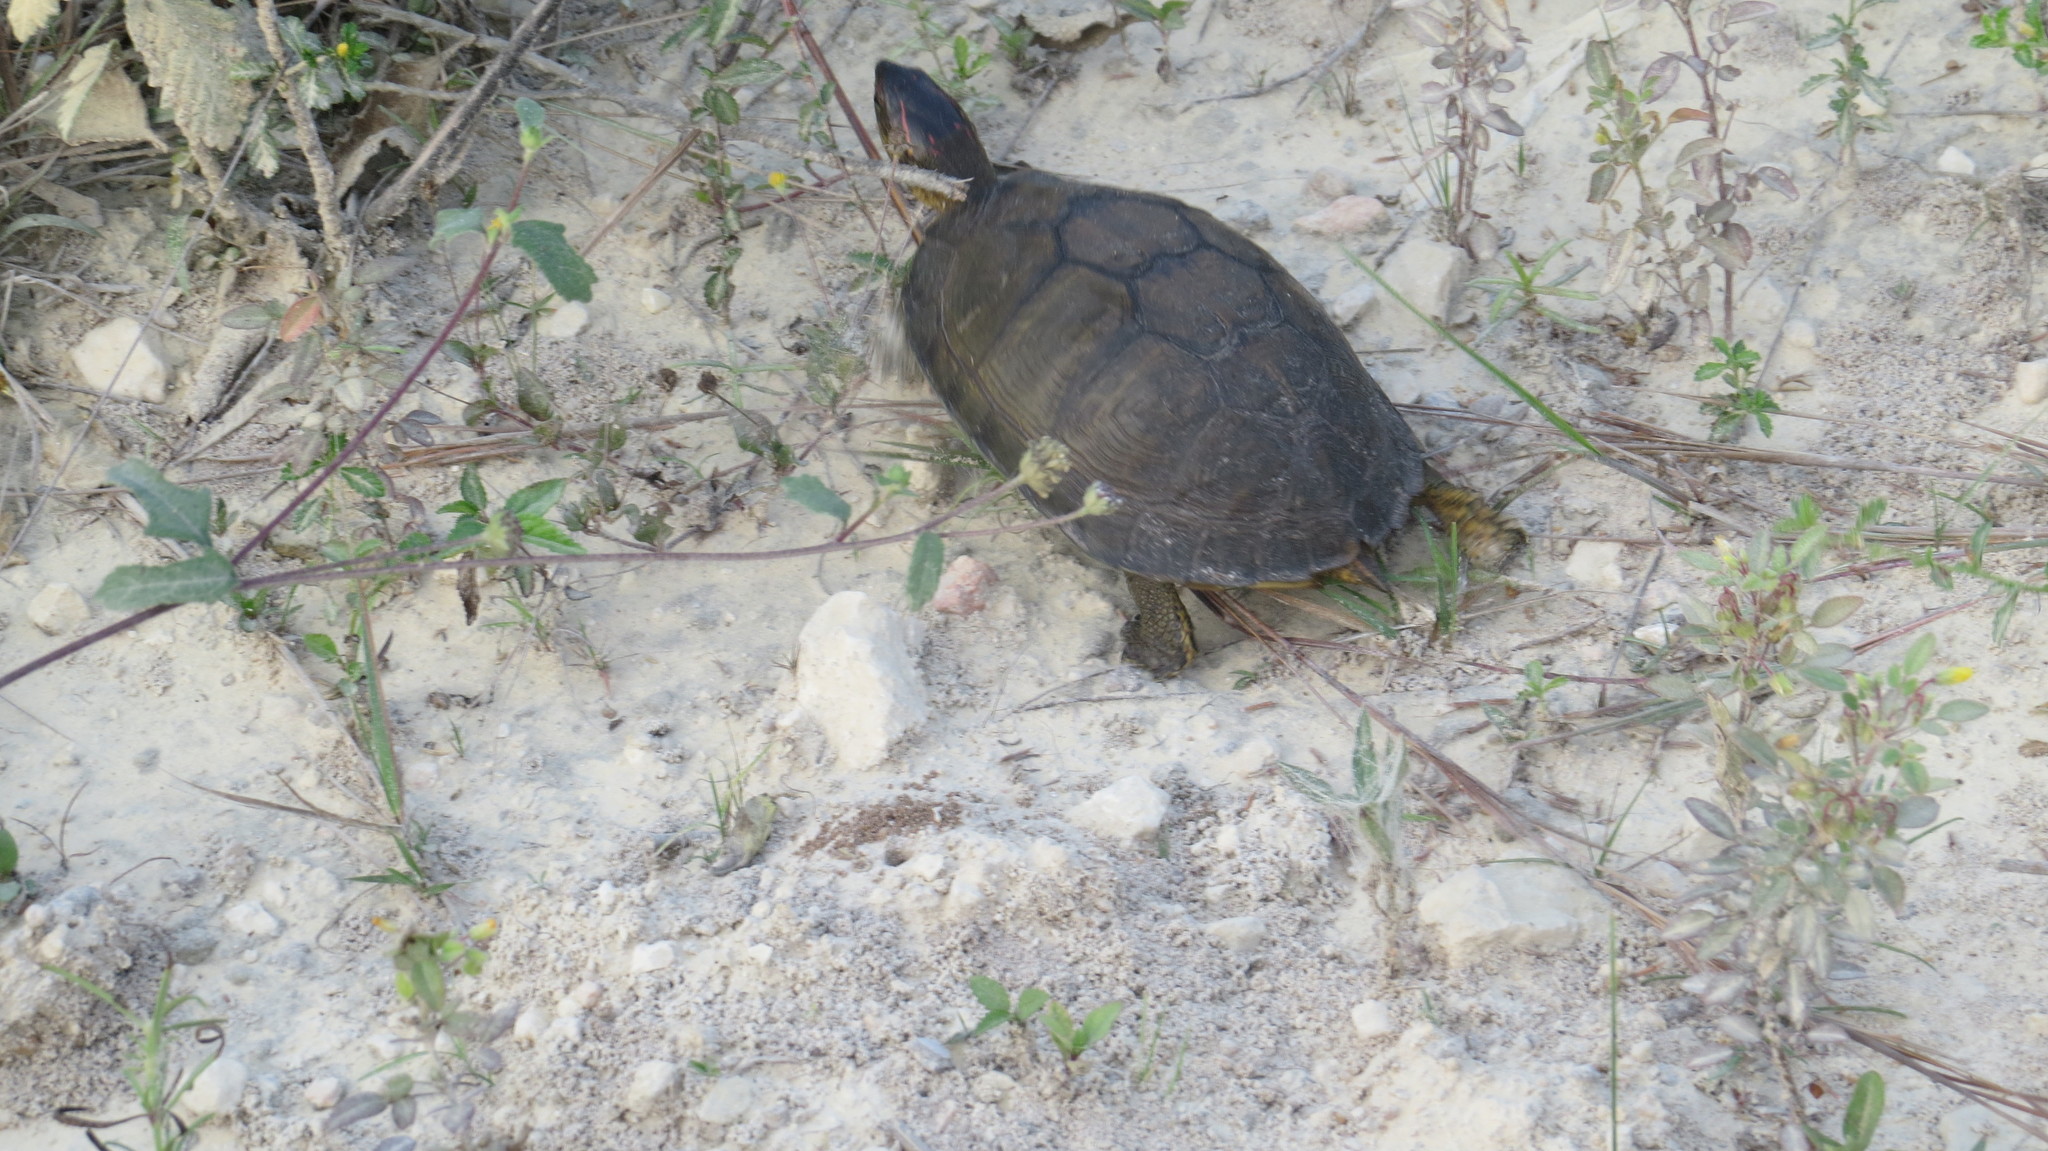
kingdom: Animalia
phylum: Chordata
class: Testudines
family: Geoemydidae
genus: Rhinoclemmys
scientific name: Rhinoclemmys areolata
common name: Furrowed wood turtle
